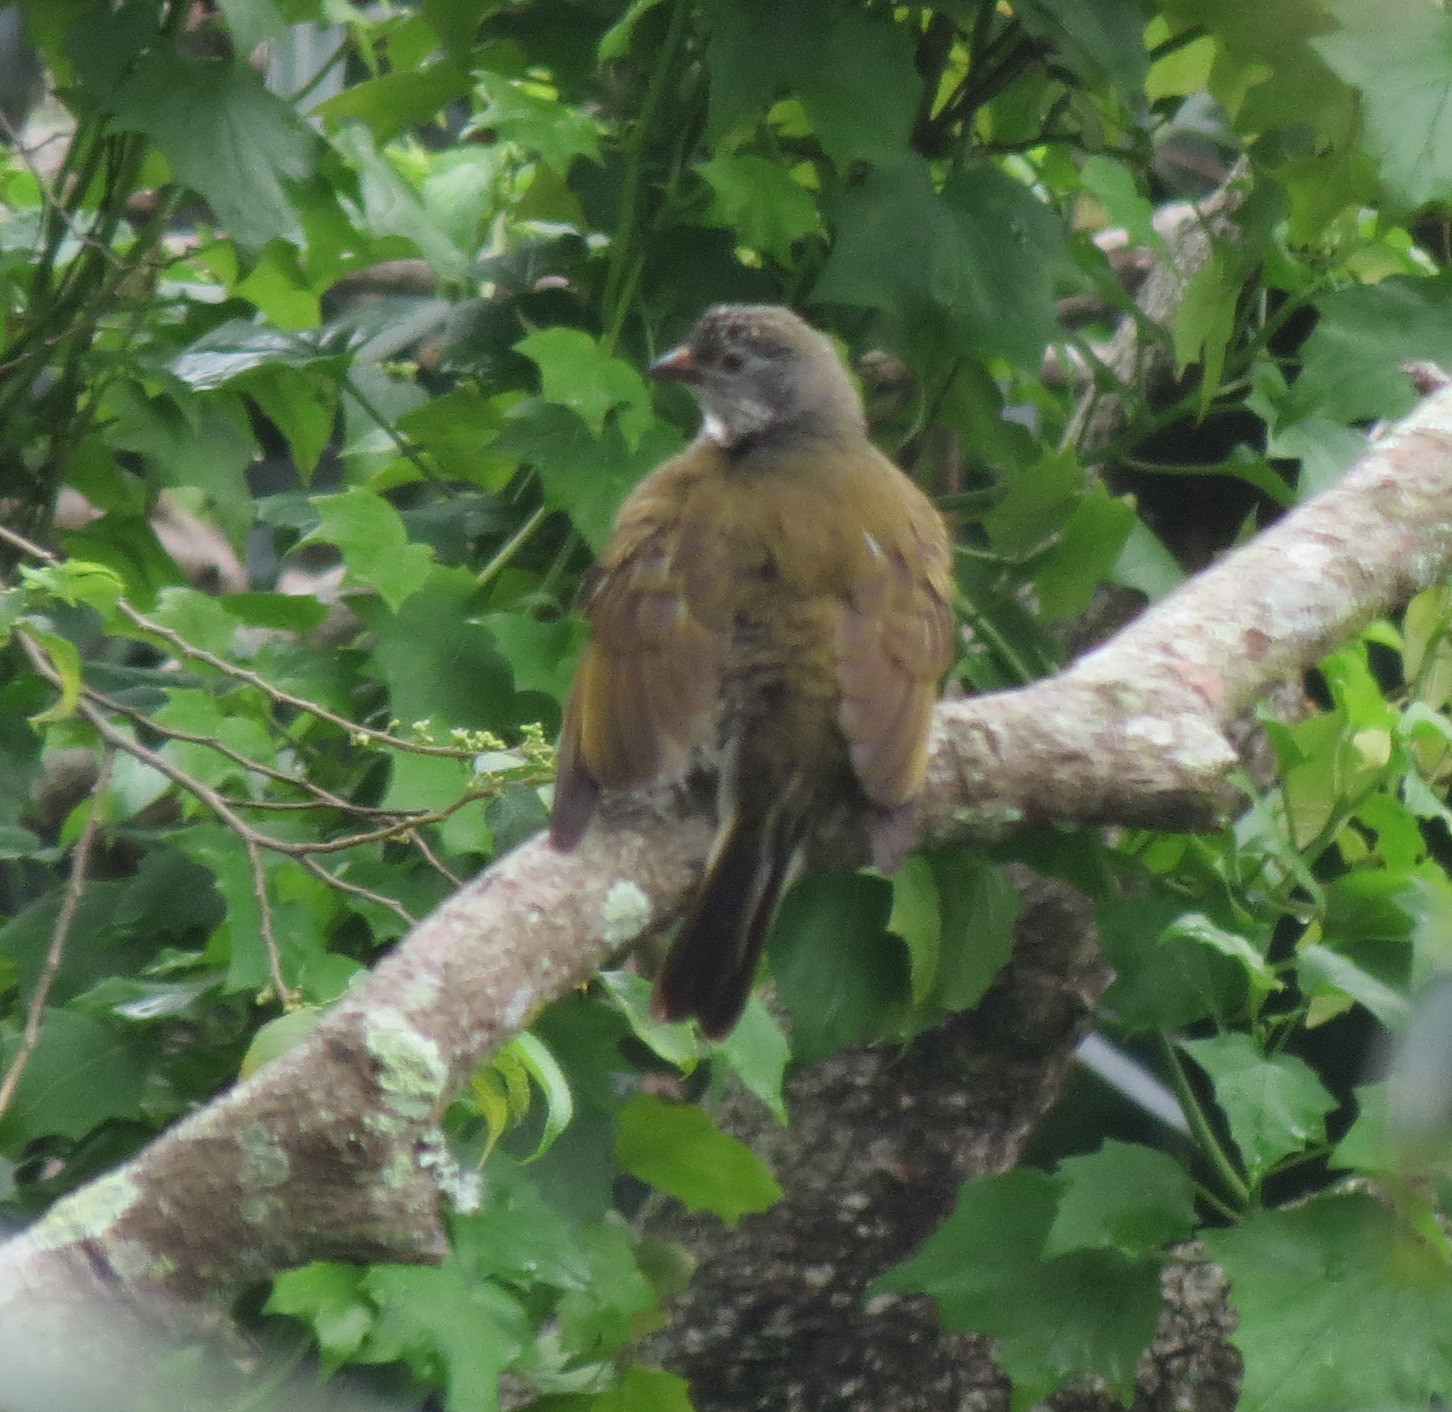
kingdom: Animalia
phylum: Chordata
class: Aves
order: Piciformes
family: Indicatoridae
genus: Indicator
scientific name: Indicator variegatus
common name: Scaly-throated honeyguide
